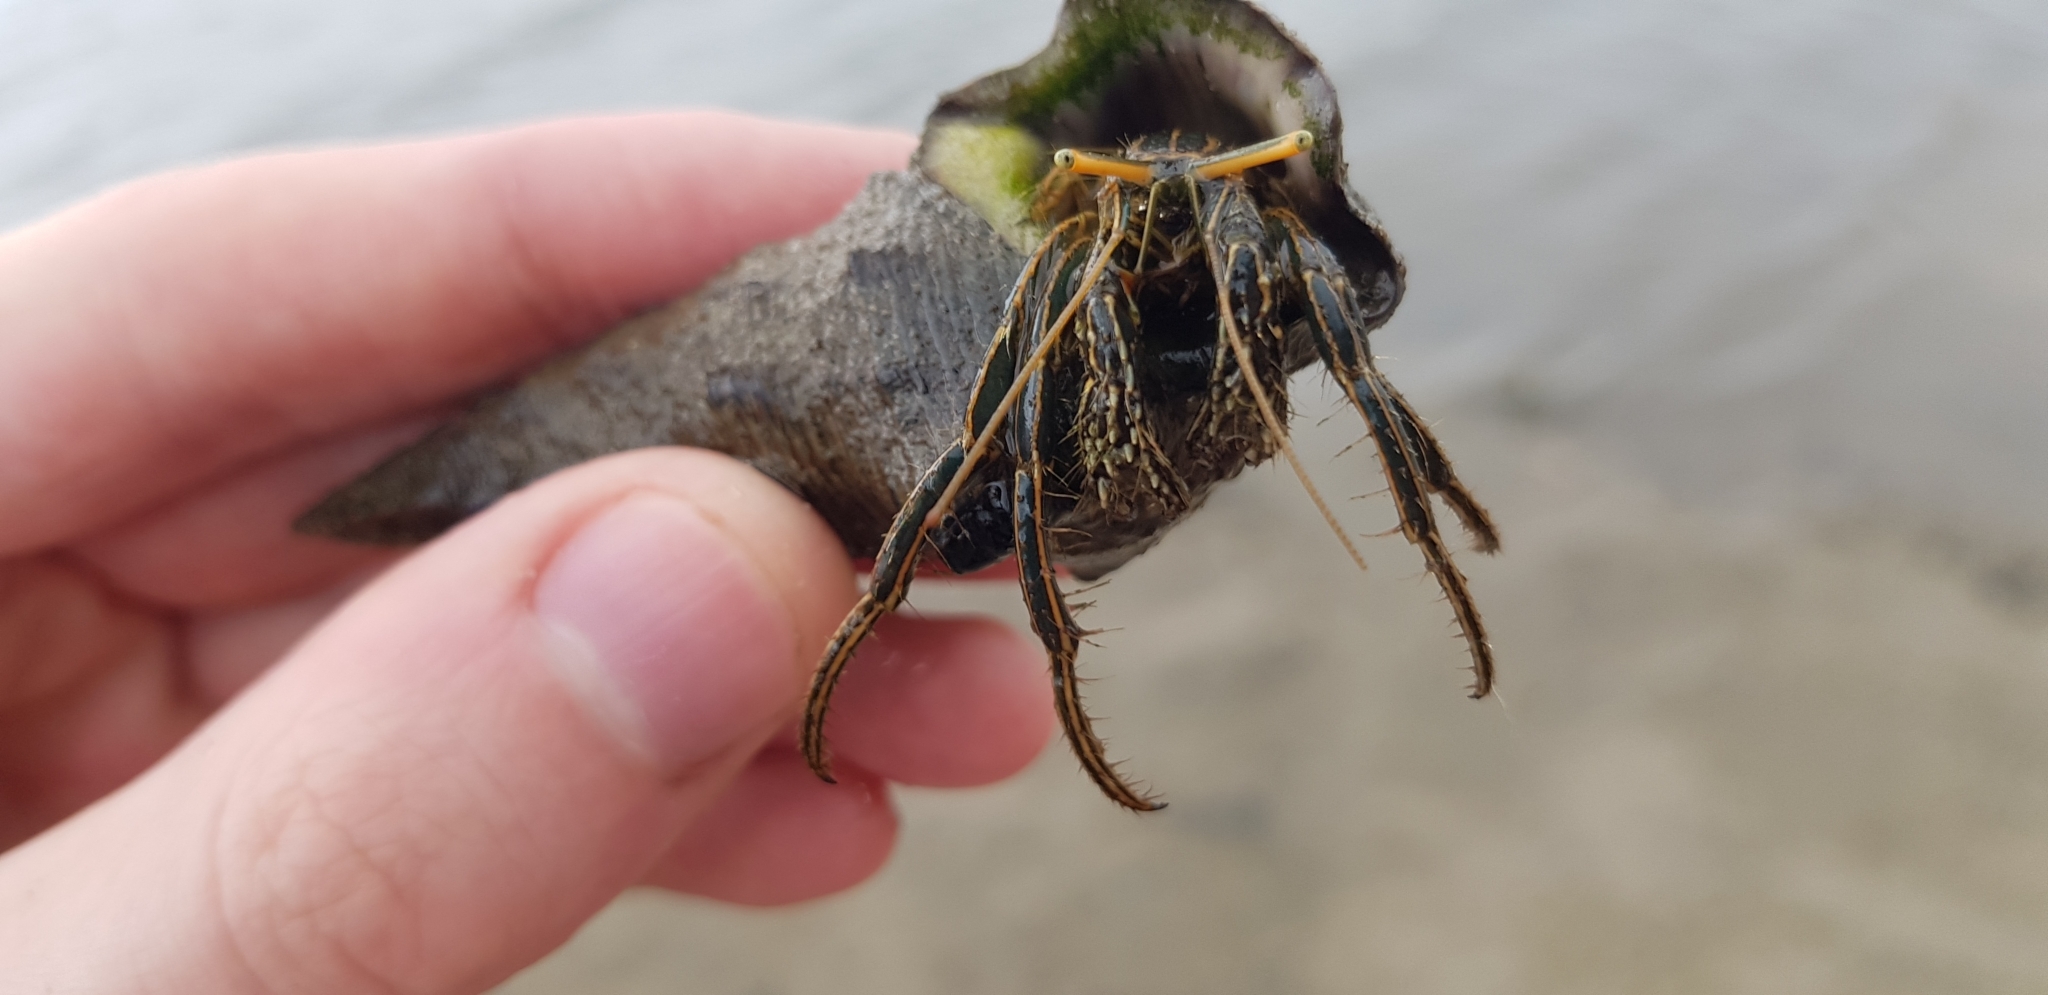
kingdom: Animalia
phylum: Arthropoda
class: Malacostraca
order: Decapoda
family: Diogenidae
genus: Clibanarius
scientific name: Clibanarius taeniatus
